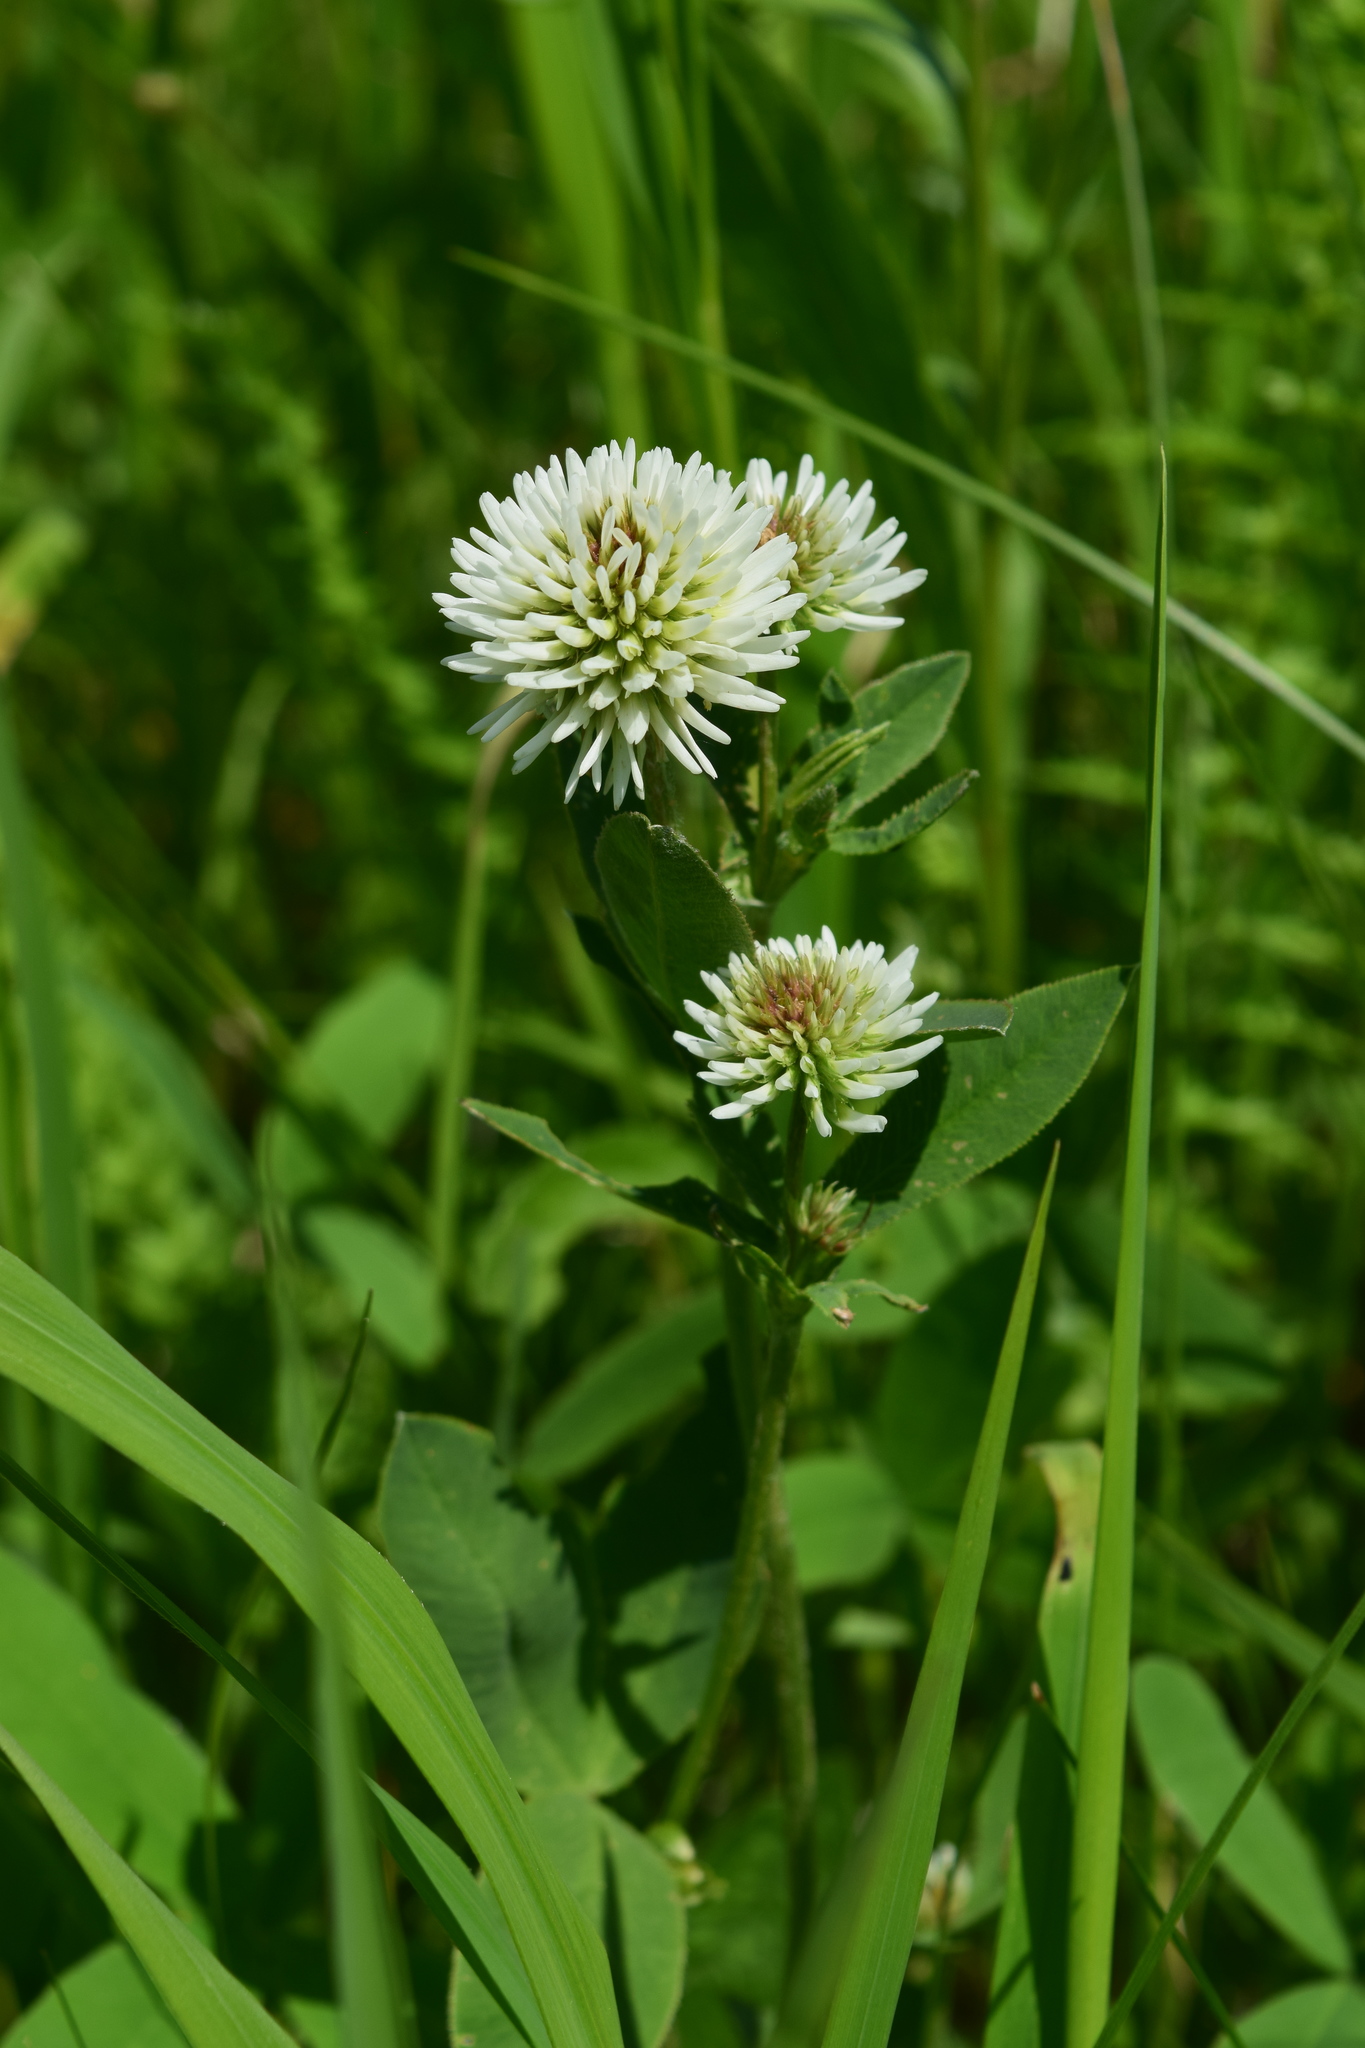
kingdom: Plantae
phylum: Tracheophyta
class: Magnoliopsida
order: Fabales
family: Fabaceae
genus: Trifolium
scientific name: Trifolium montanum
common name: Mountain clover
